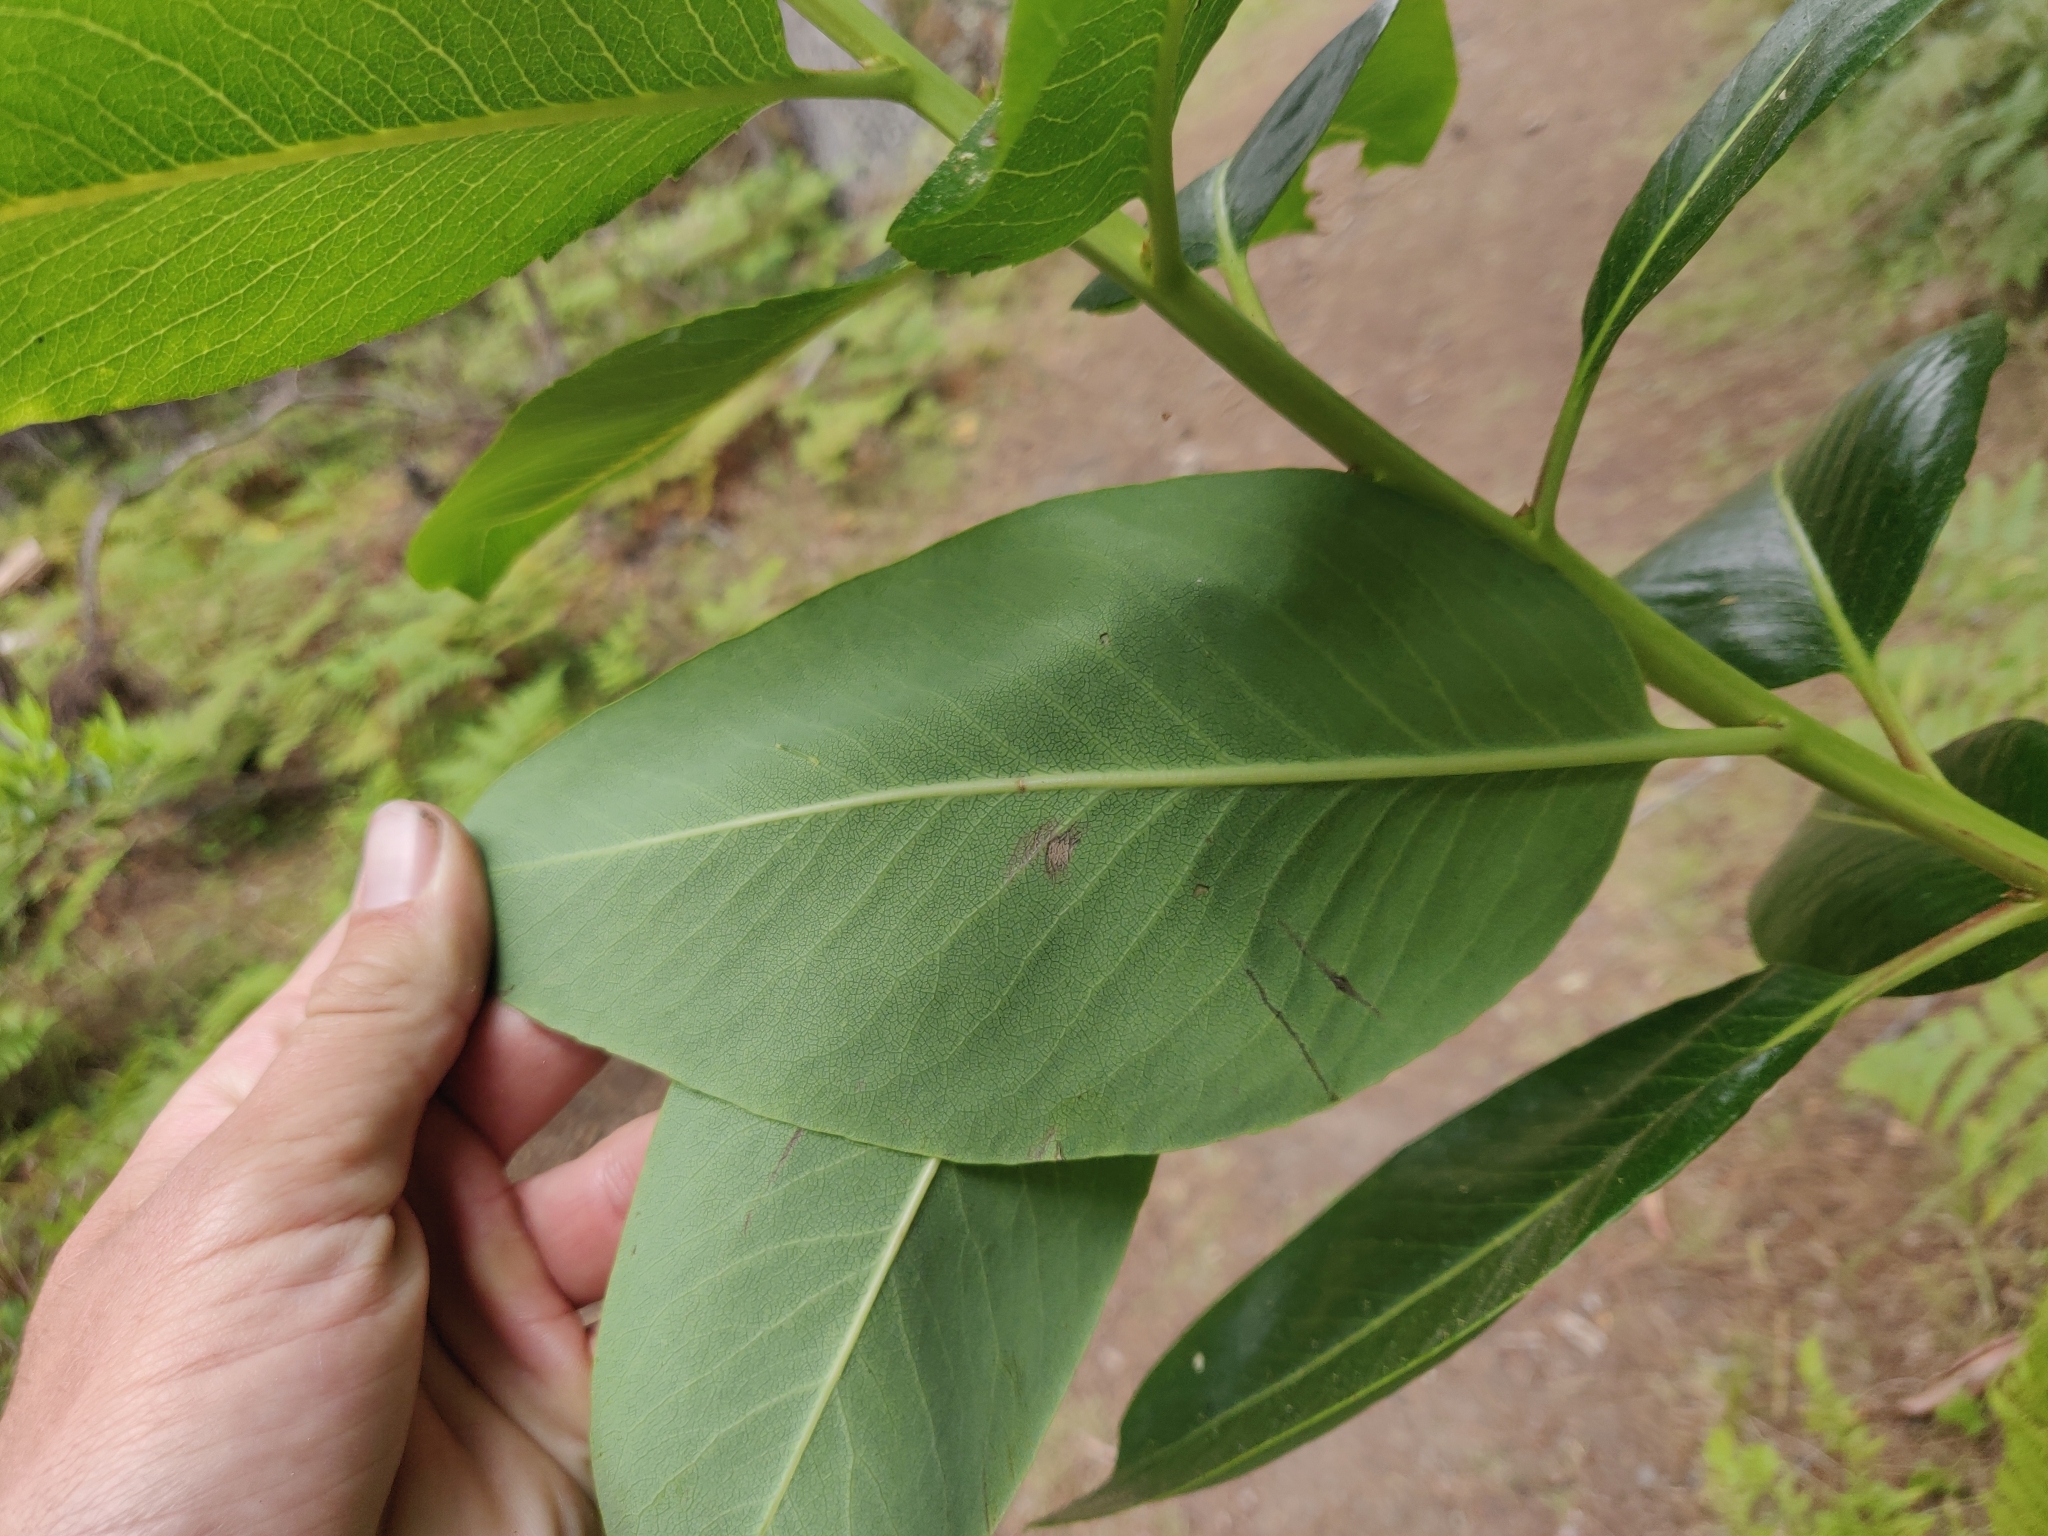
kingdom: Plantae
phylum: Tracheophyta
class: Magnoliopsida
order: Ericales
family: Ericaceae
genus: Arbutus
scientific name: Arbutus menziesii
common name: Pacific madrone
